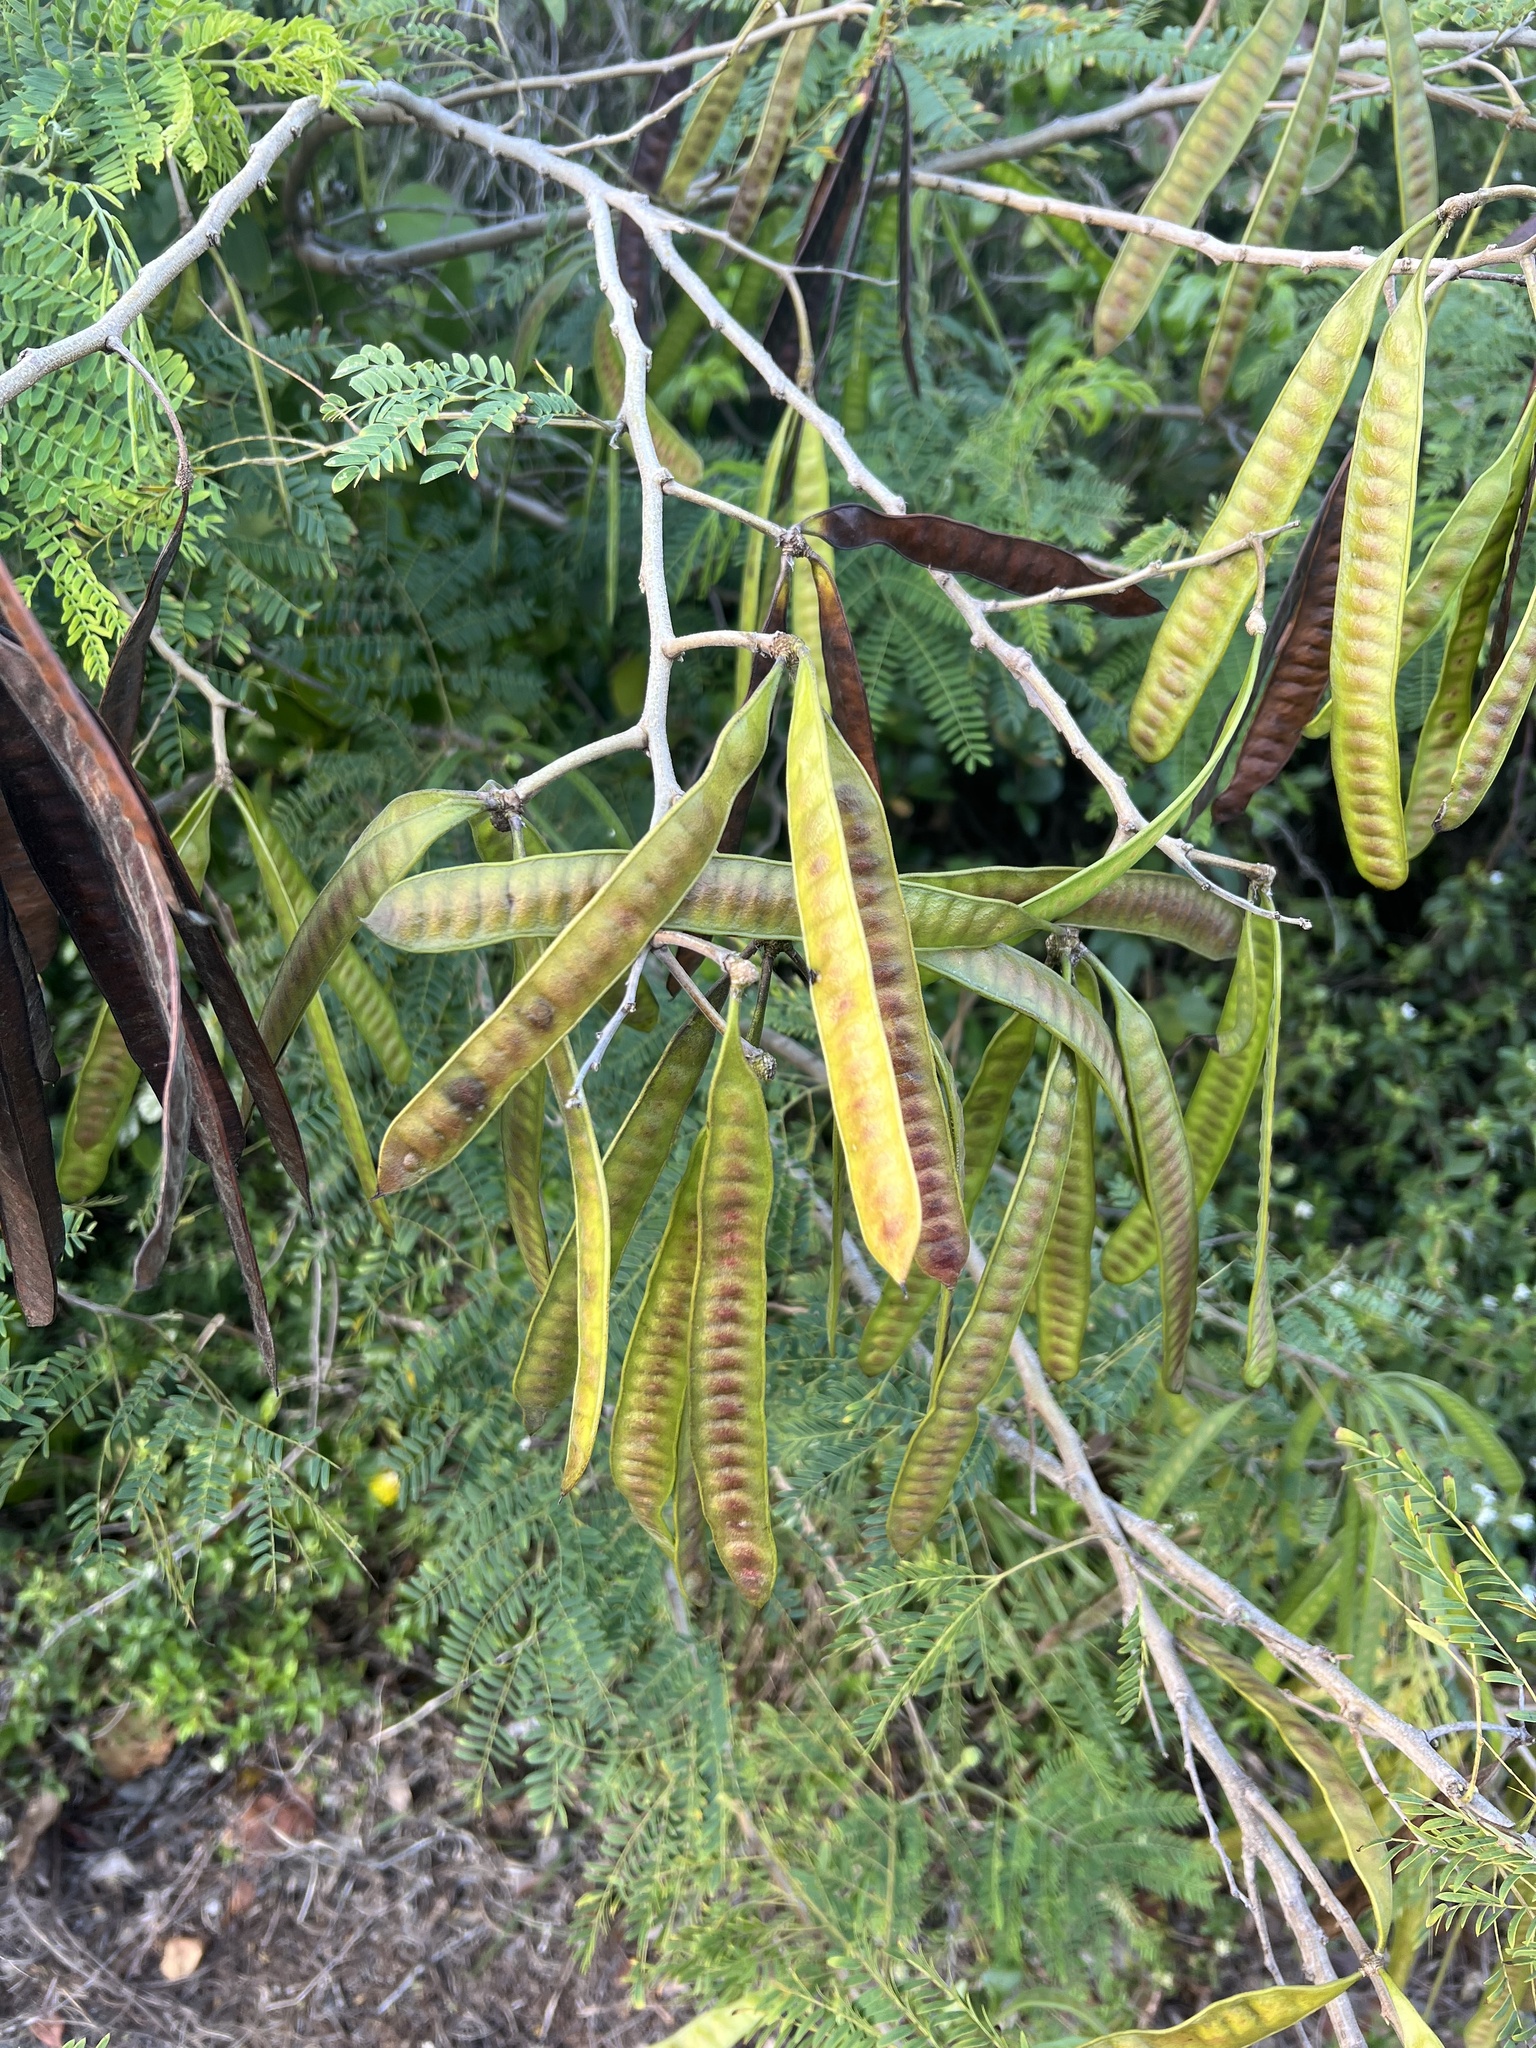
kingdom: Plantae
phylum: Tracheophyta
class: Magnoliopsida
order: Fabales
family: Fabaceae
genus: Leucaena
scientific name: Leucaena leucocephala
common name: White leadtree
